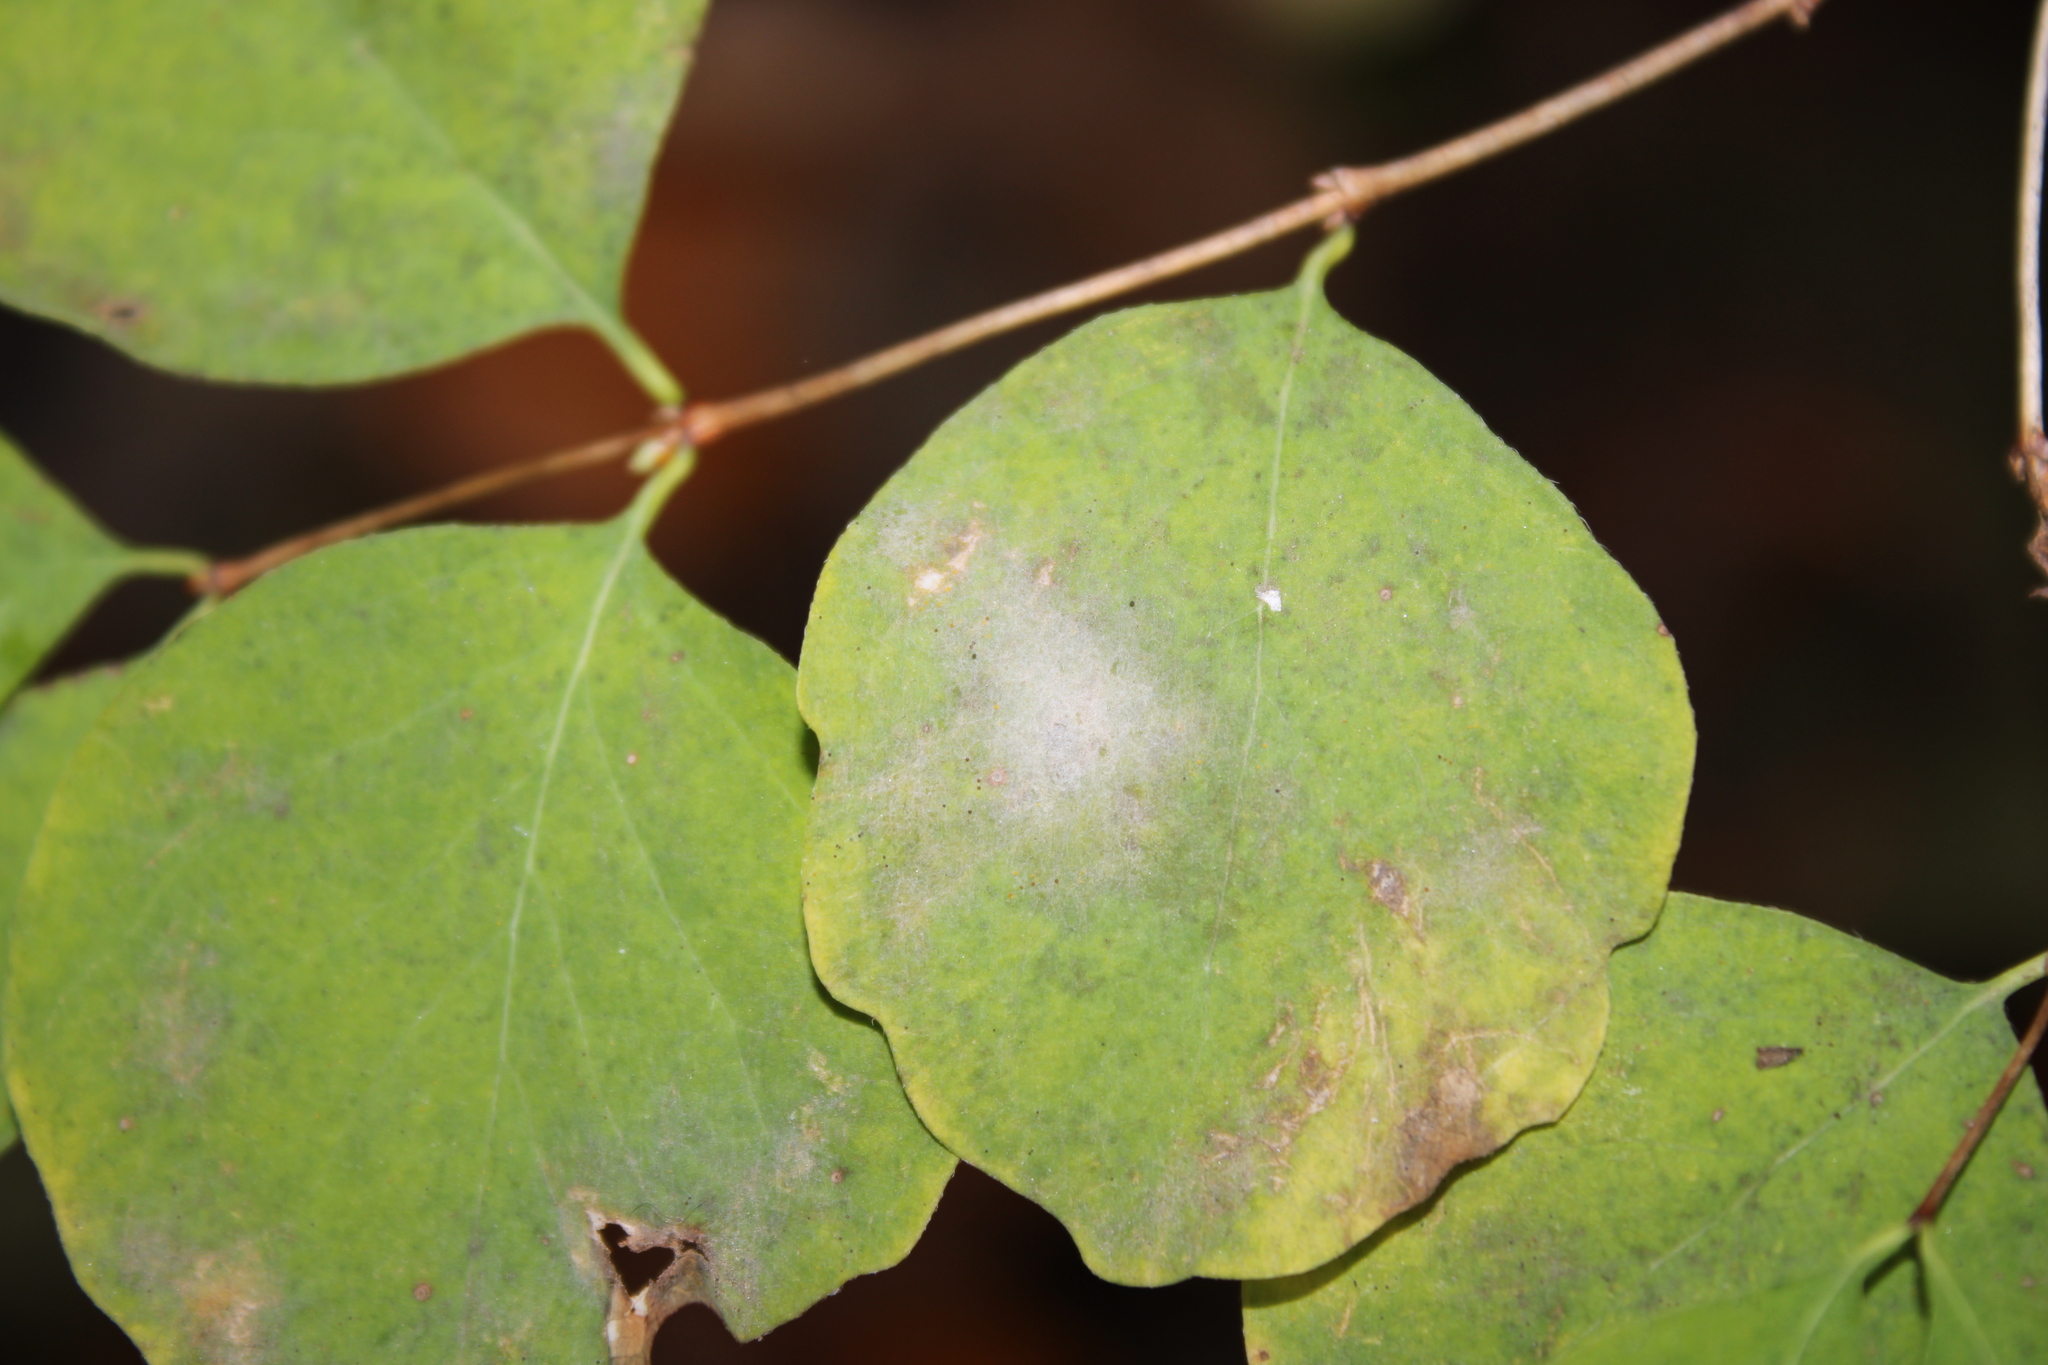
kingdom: Fungi
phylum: Ascomycota
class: Leotiomycetes
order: Helotiales
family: Erysiphaceae
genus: Erysiphe
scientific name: Erysiphe symphoricarpi
